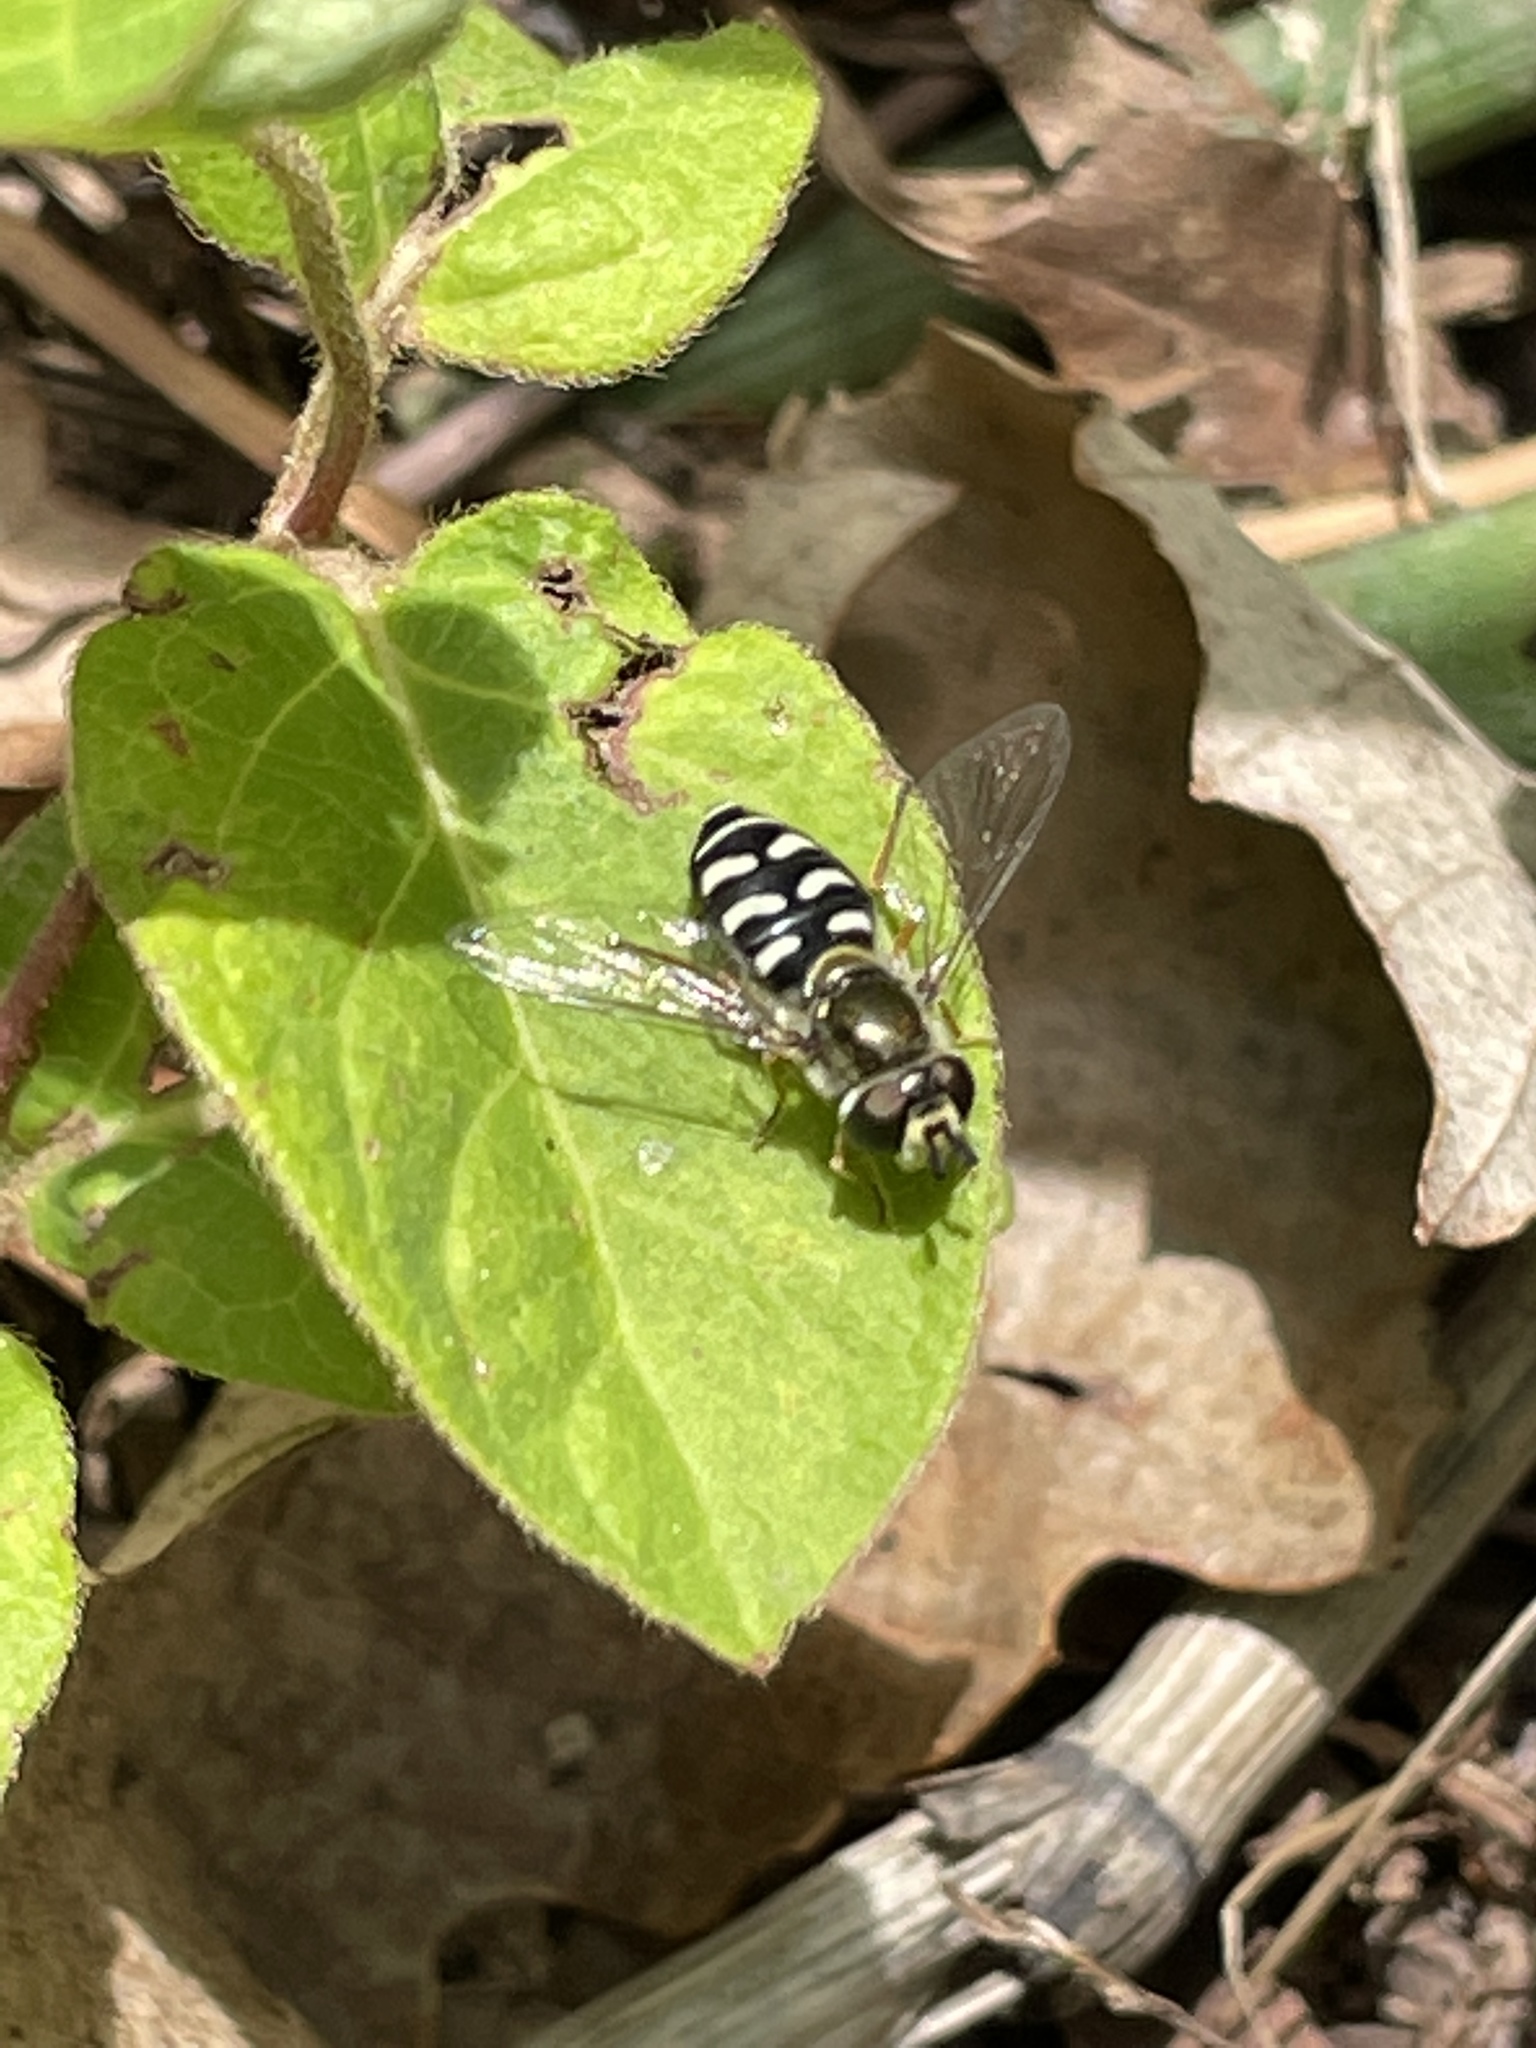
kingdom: Animalia
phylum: Arthropoda
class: Insecta
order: Diptera
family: Syrphidae
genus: Eupeodes
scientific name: Eupeodes volucris
